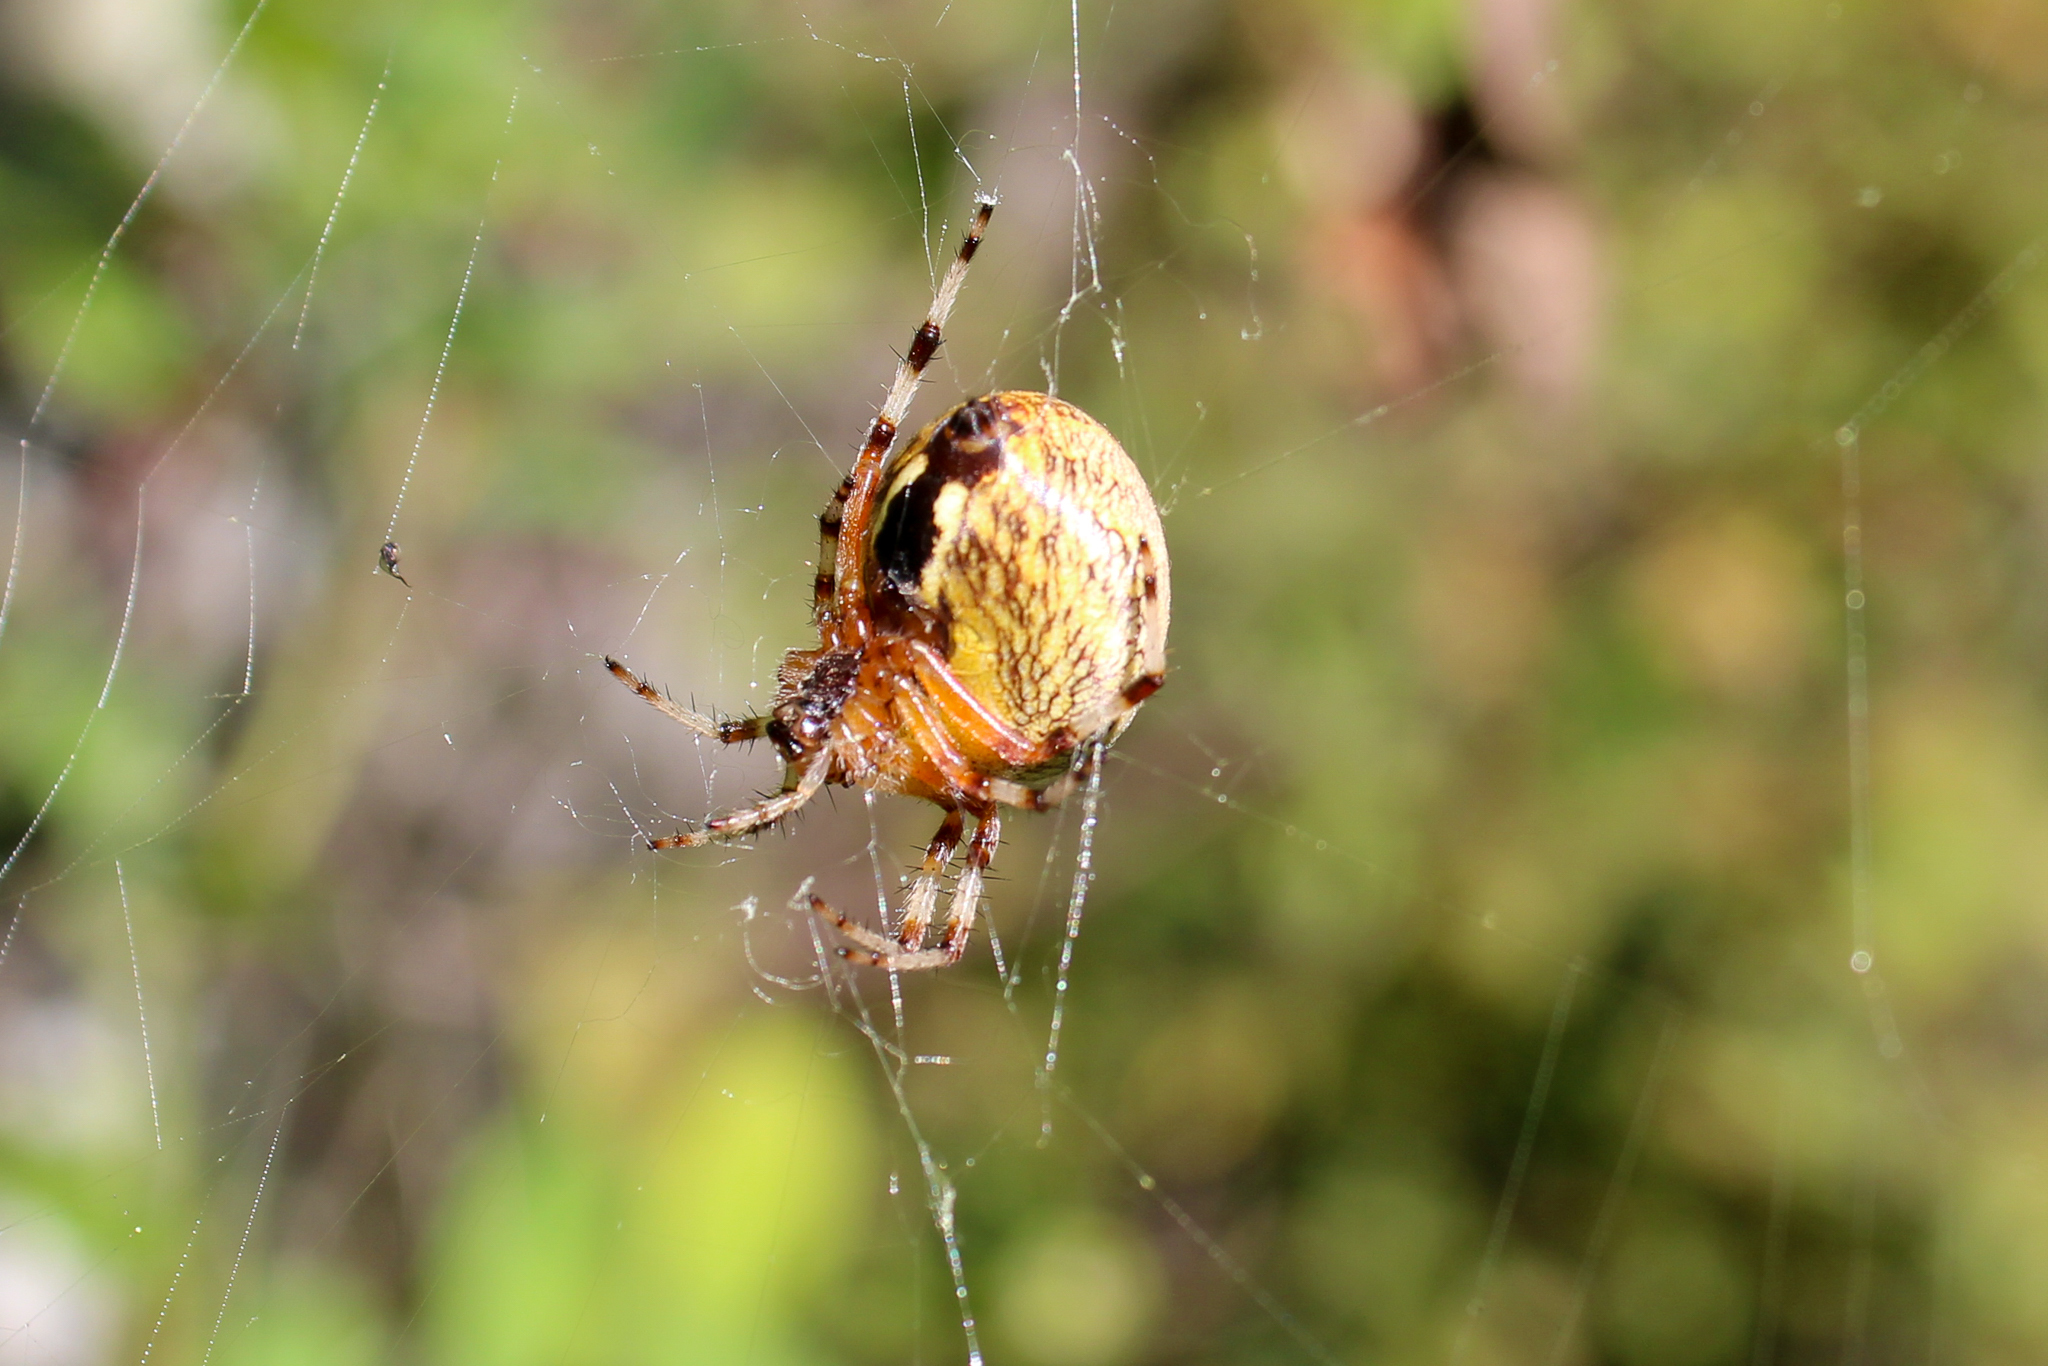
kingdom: Animalia
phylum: Arthropoda
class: Arachnida
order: Araneae
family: Araneidae
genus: Araneus
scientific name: Araneus marmoreus
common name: Marbled orbweaver
